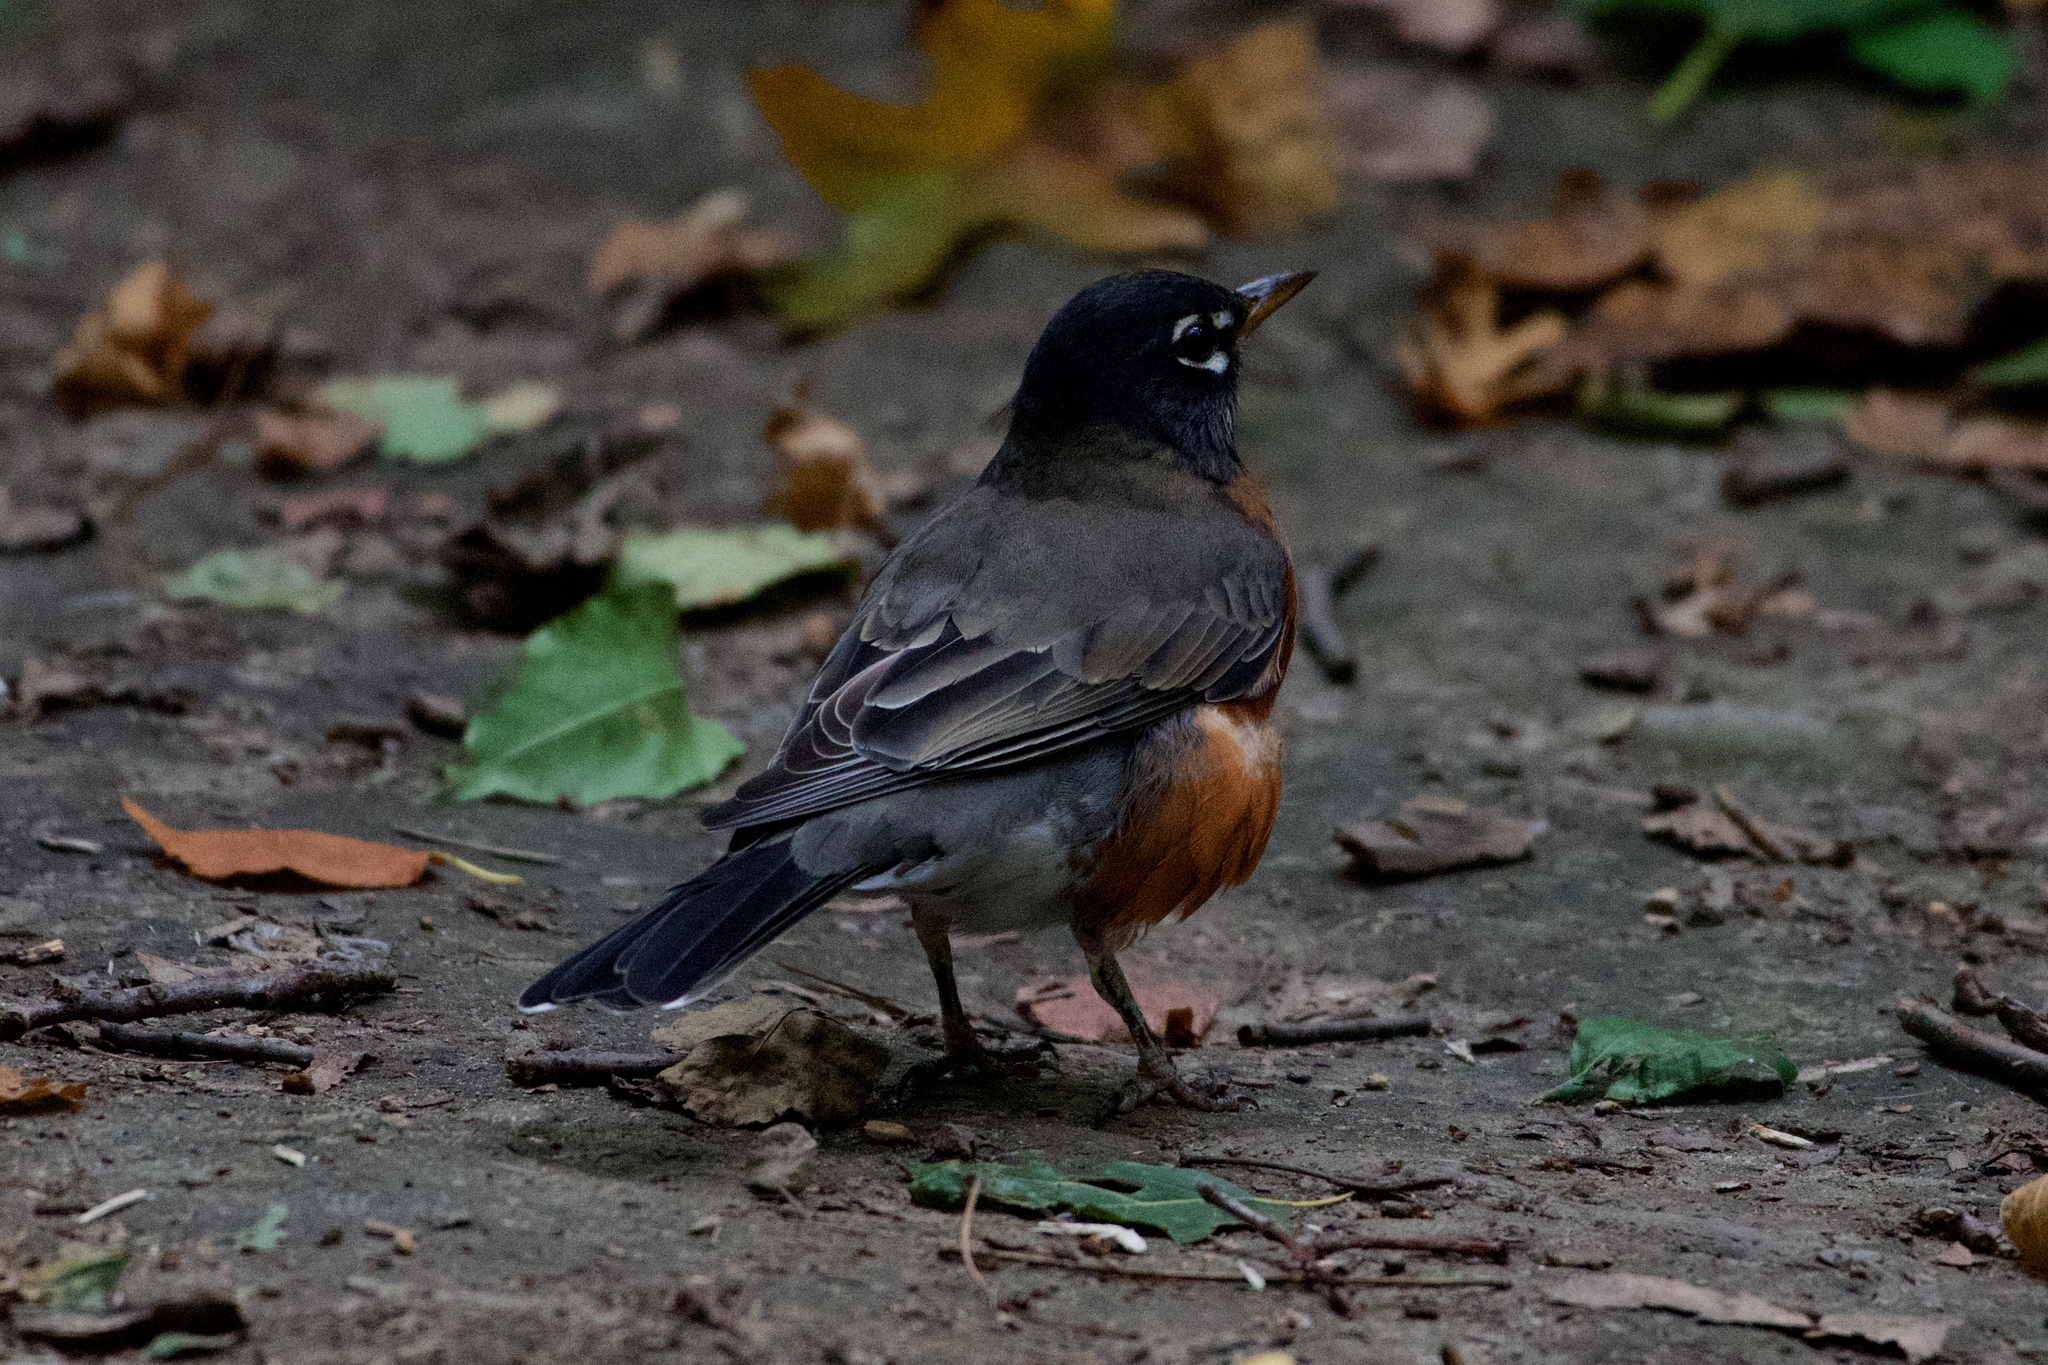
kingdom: Animalia
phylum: Chordata
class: Aves
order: Passeriformes
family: Turdidae
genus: Turdus
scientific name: Turdus migratorius
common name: American robin
